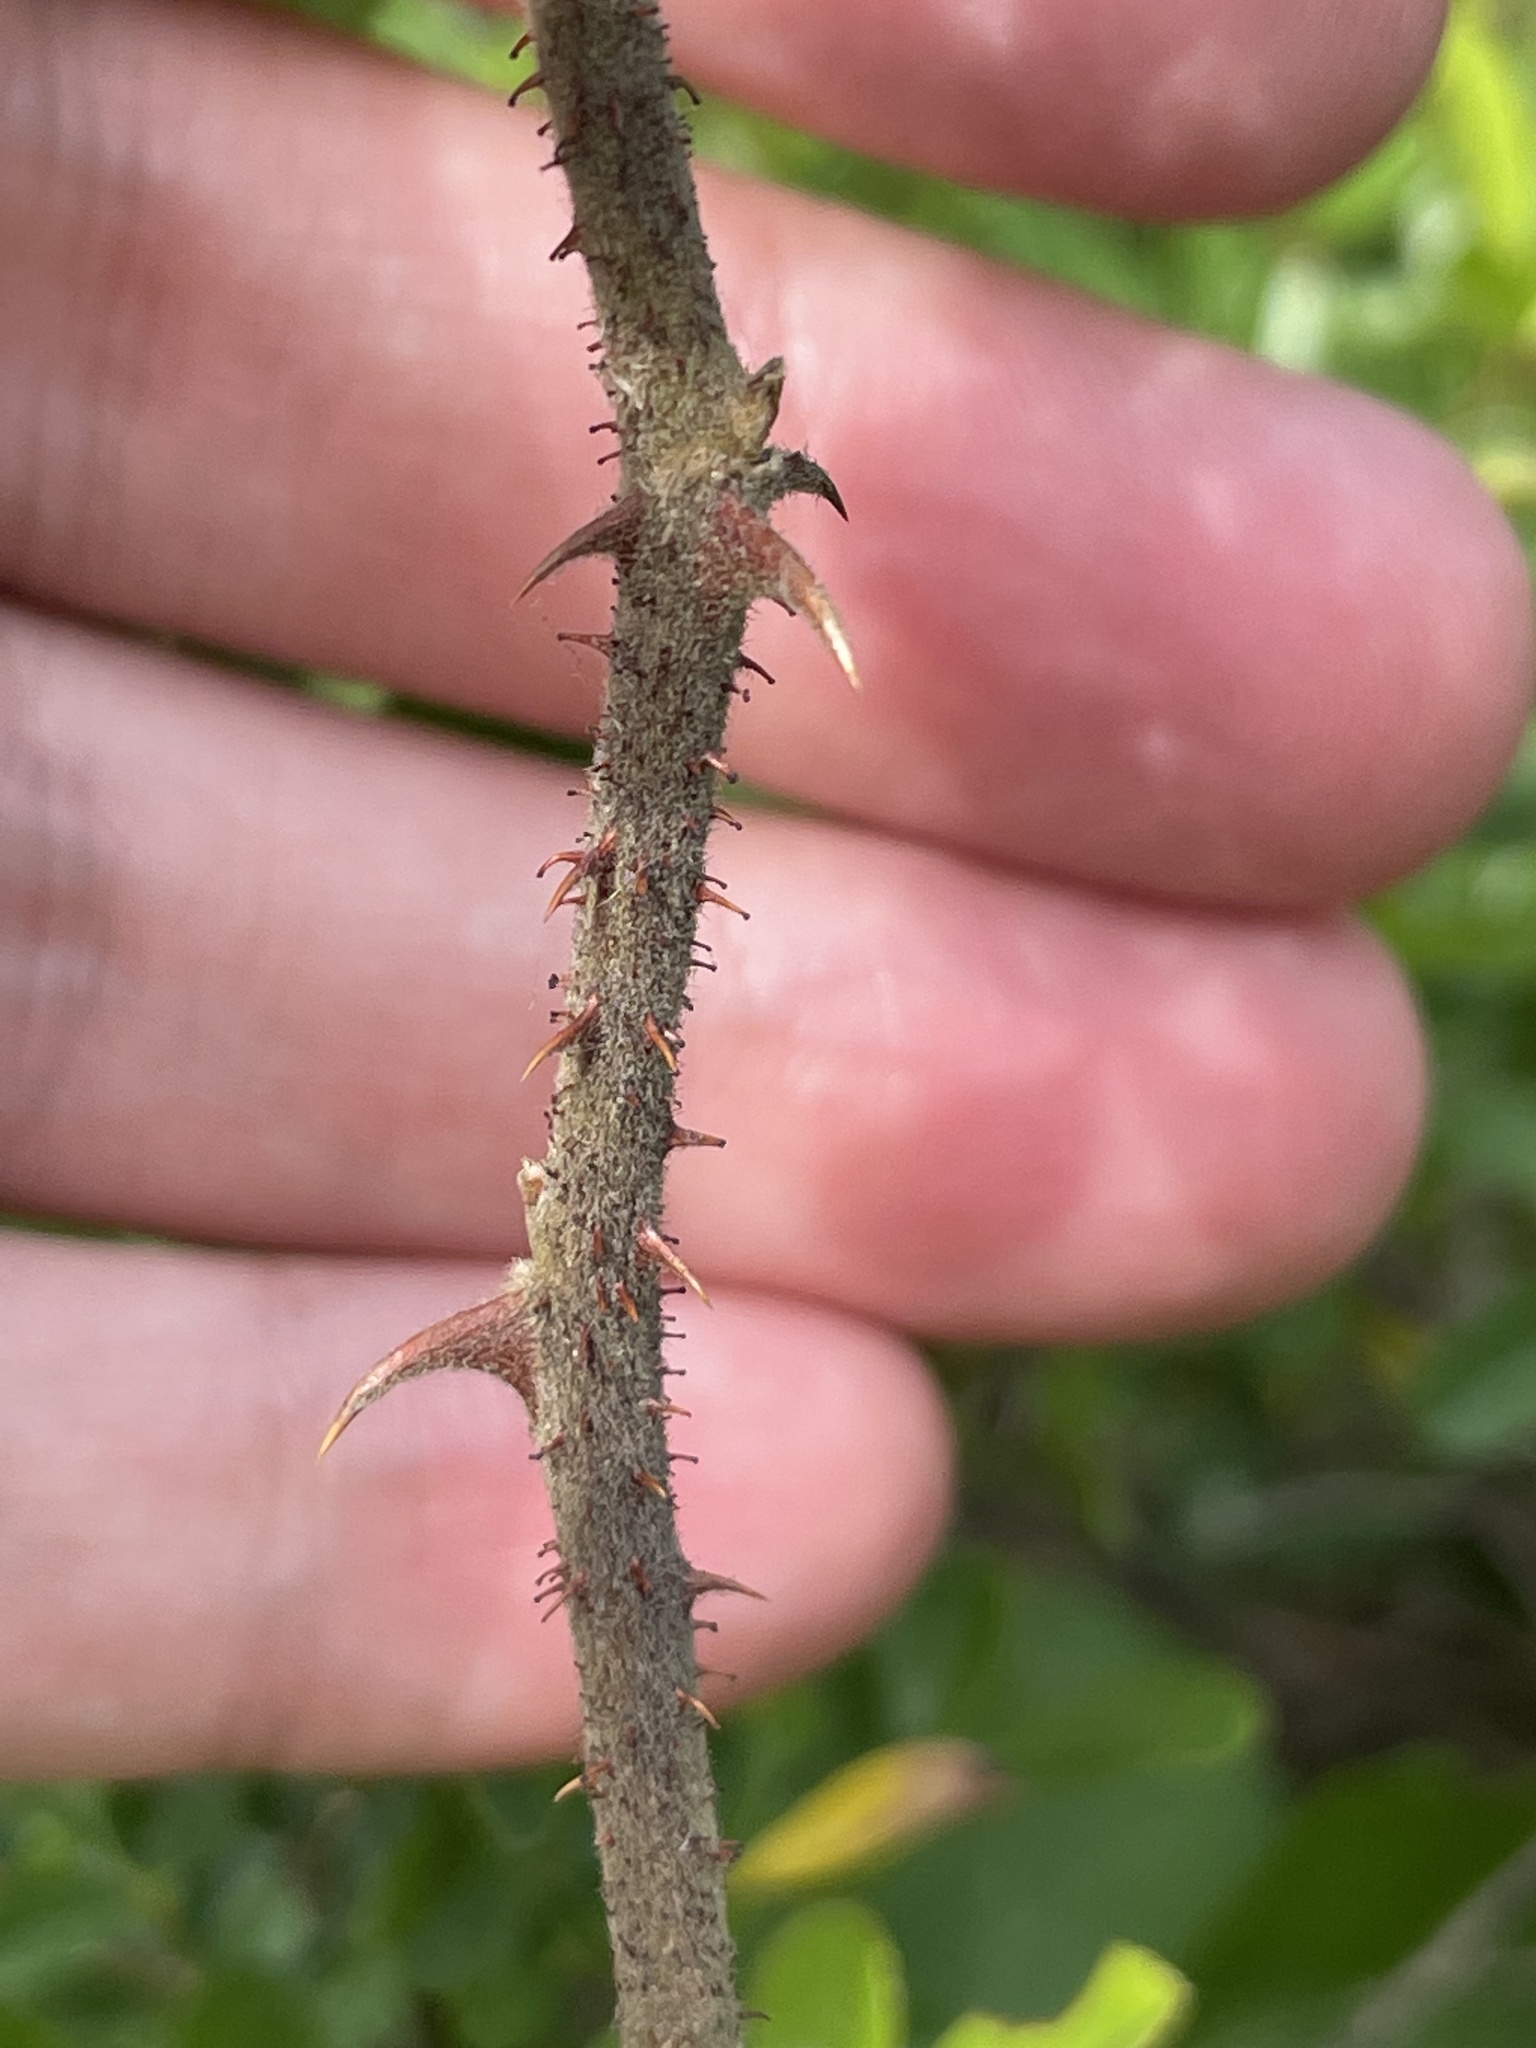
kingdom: Plantae
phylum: Tracheophyta
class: Magnoliopsida
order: Rosales
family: Rosaceae
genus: Rosa
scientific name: Rosa bracteata
